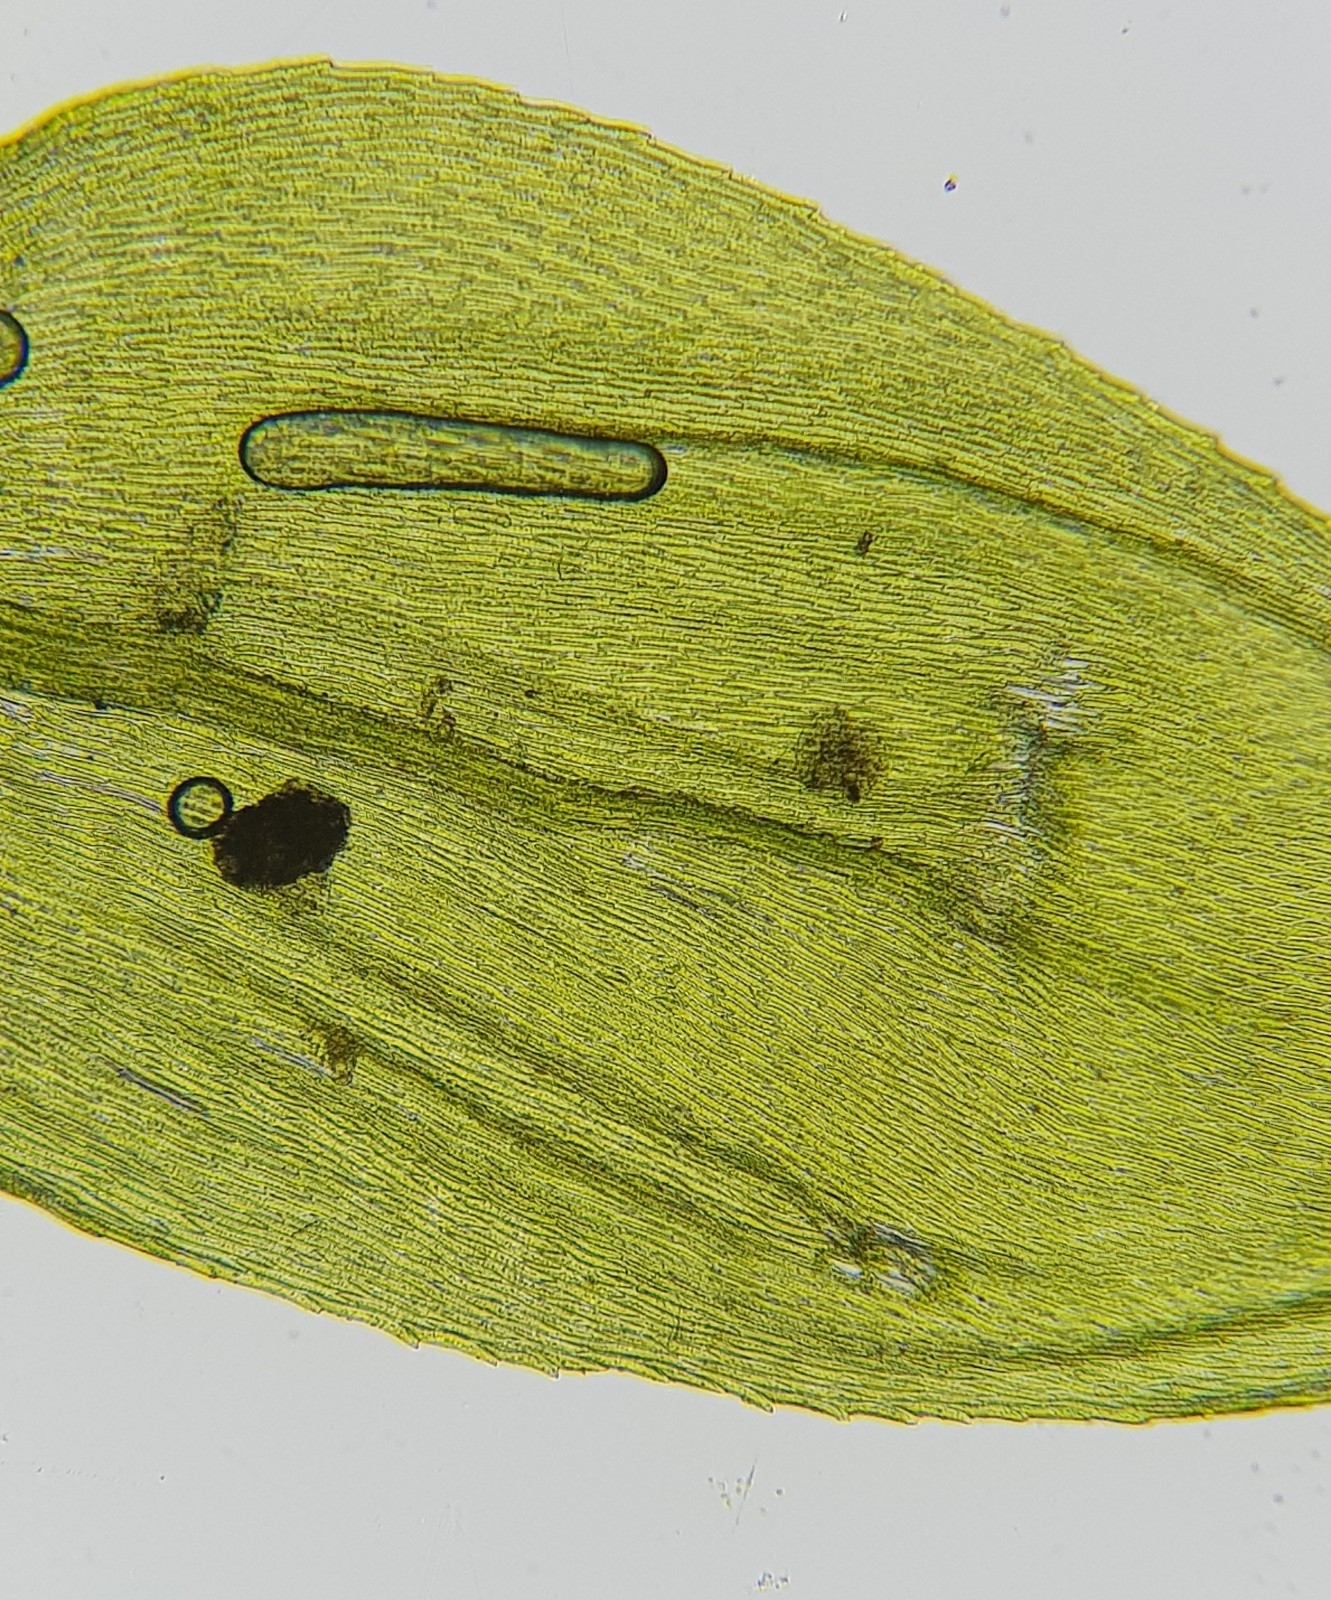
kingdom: Plantae
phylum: Bryophyta
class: Bryopsida
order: Hypnales
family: Brachytheciaceae
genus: Cirriphyllum
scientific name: Cirriphyllum crassinervium
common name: Beech feather-moss
